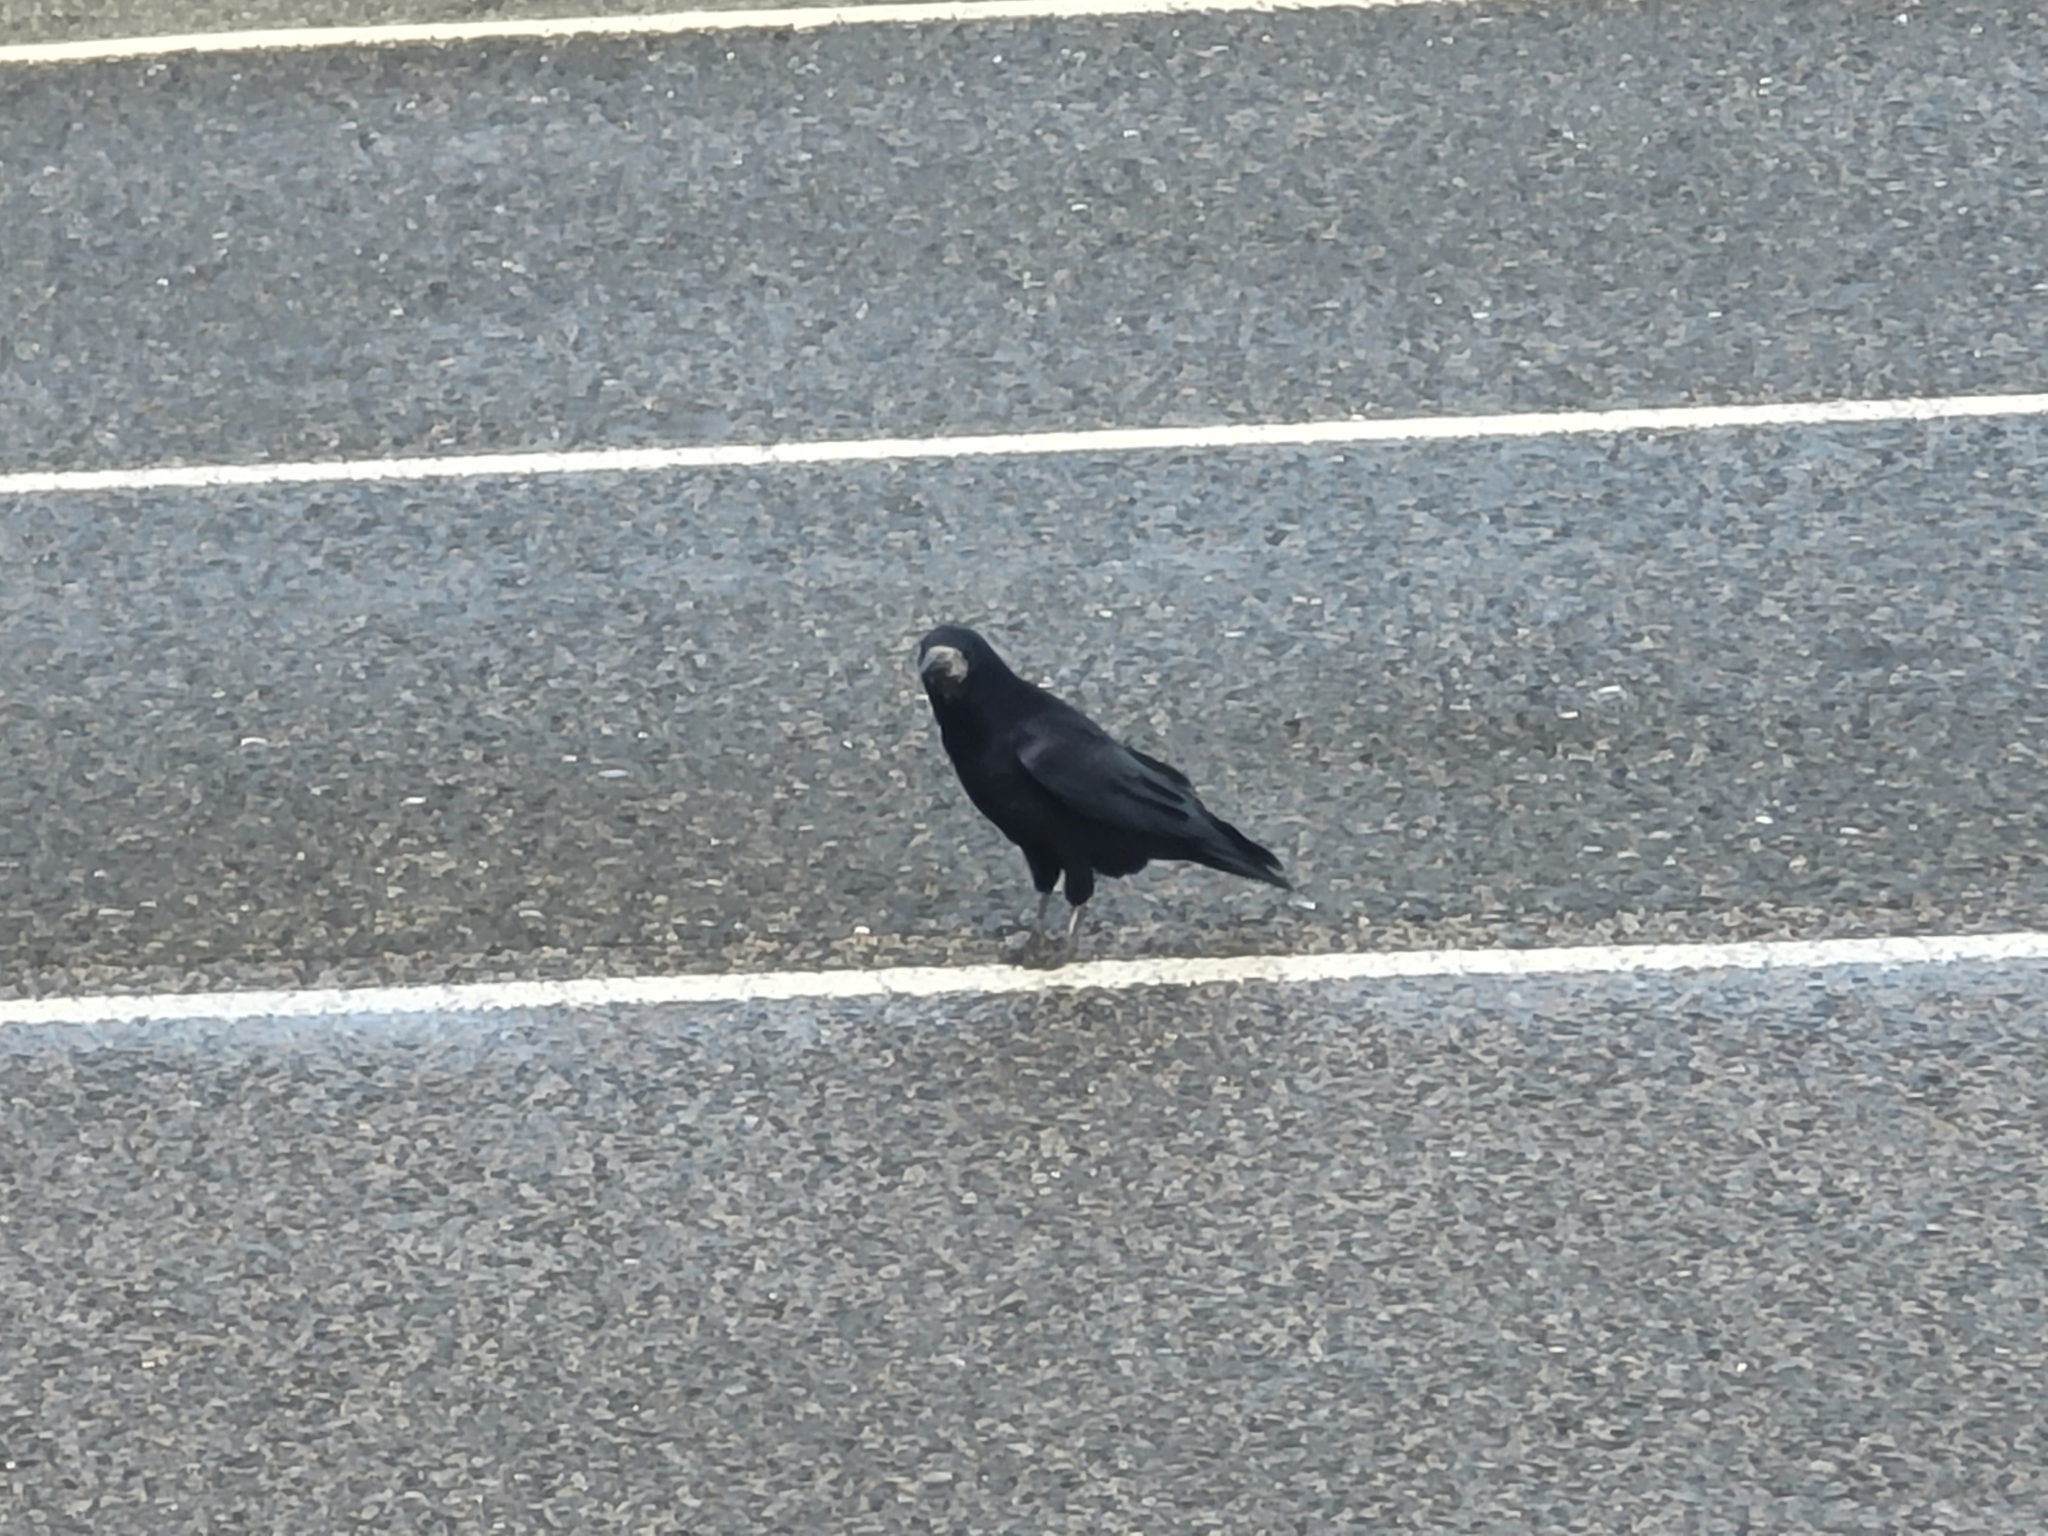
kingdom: Animalia
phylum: Chordata
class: Aves
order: Passeriformes
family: Corvidae
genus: Corvus
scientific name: Corvus frugilegus
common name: Rook
